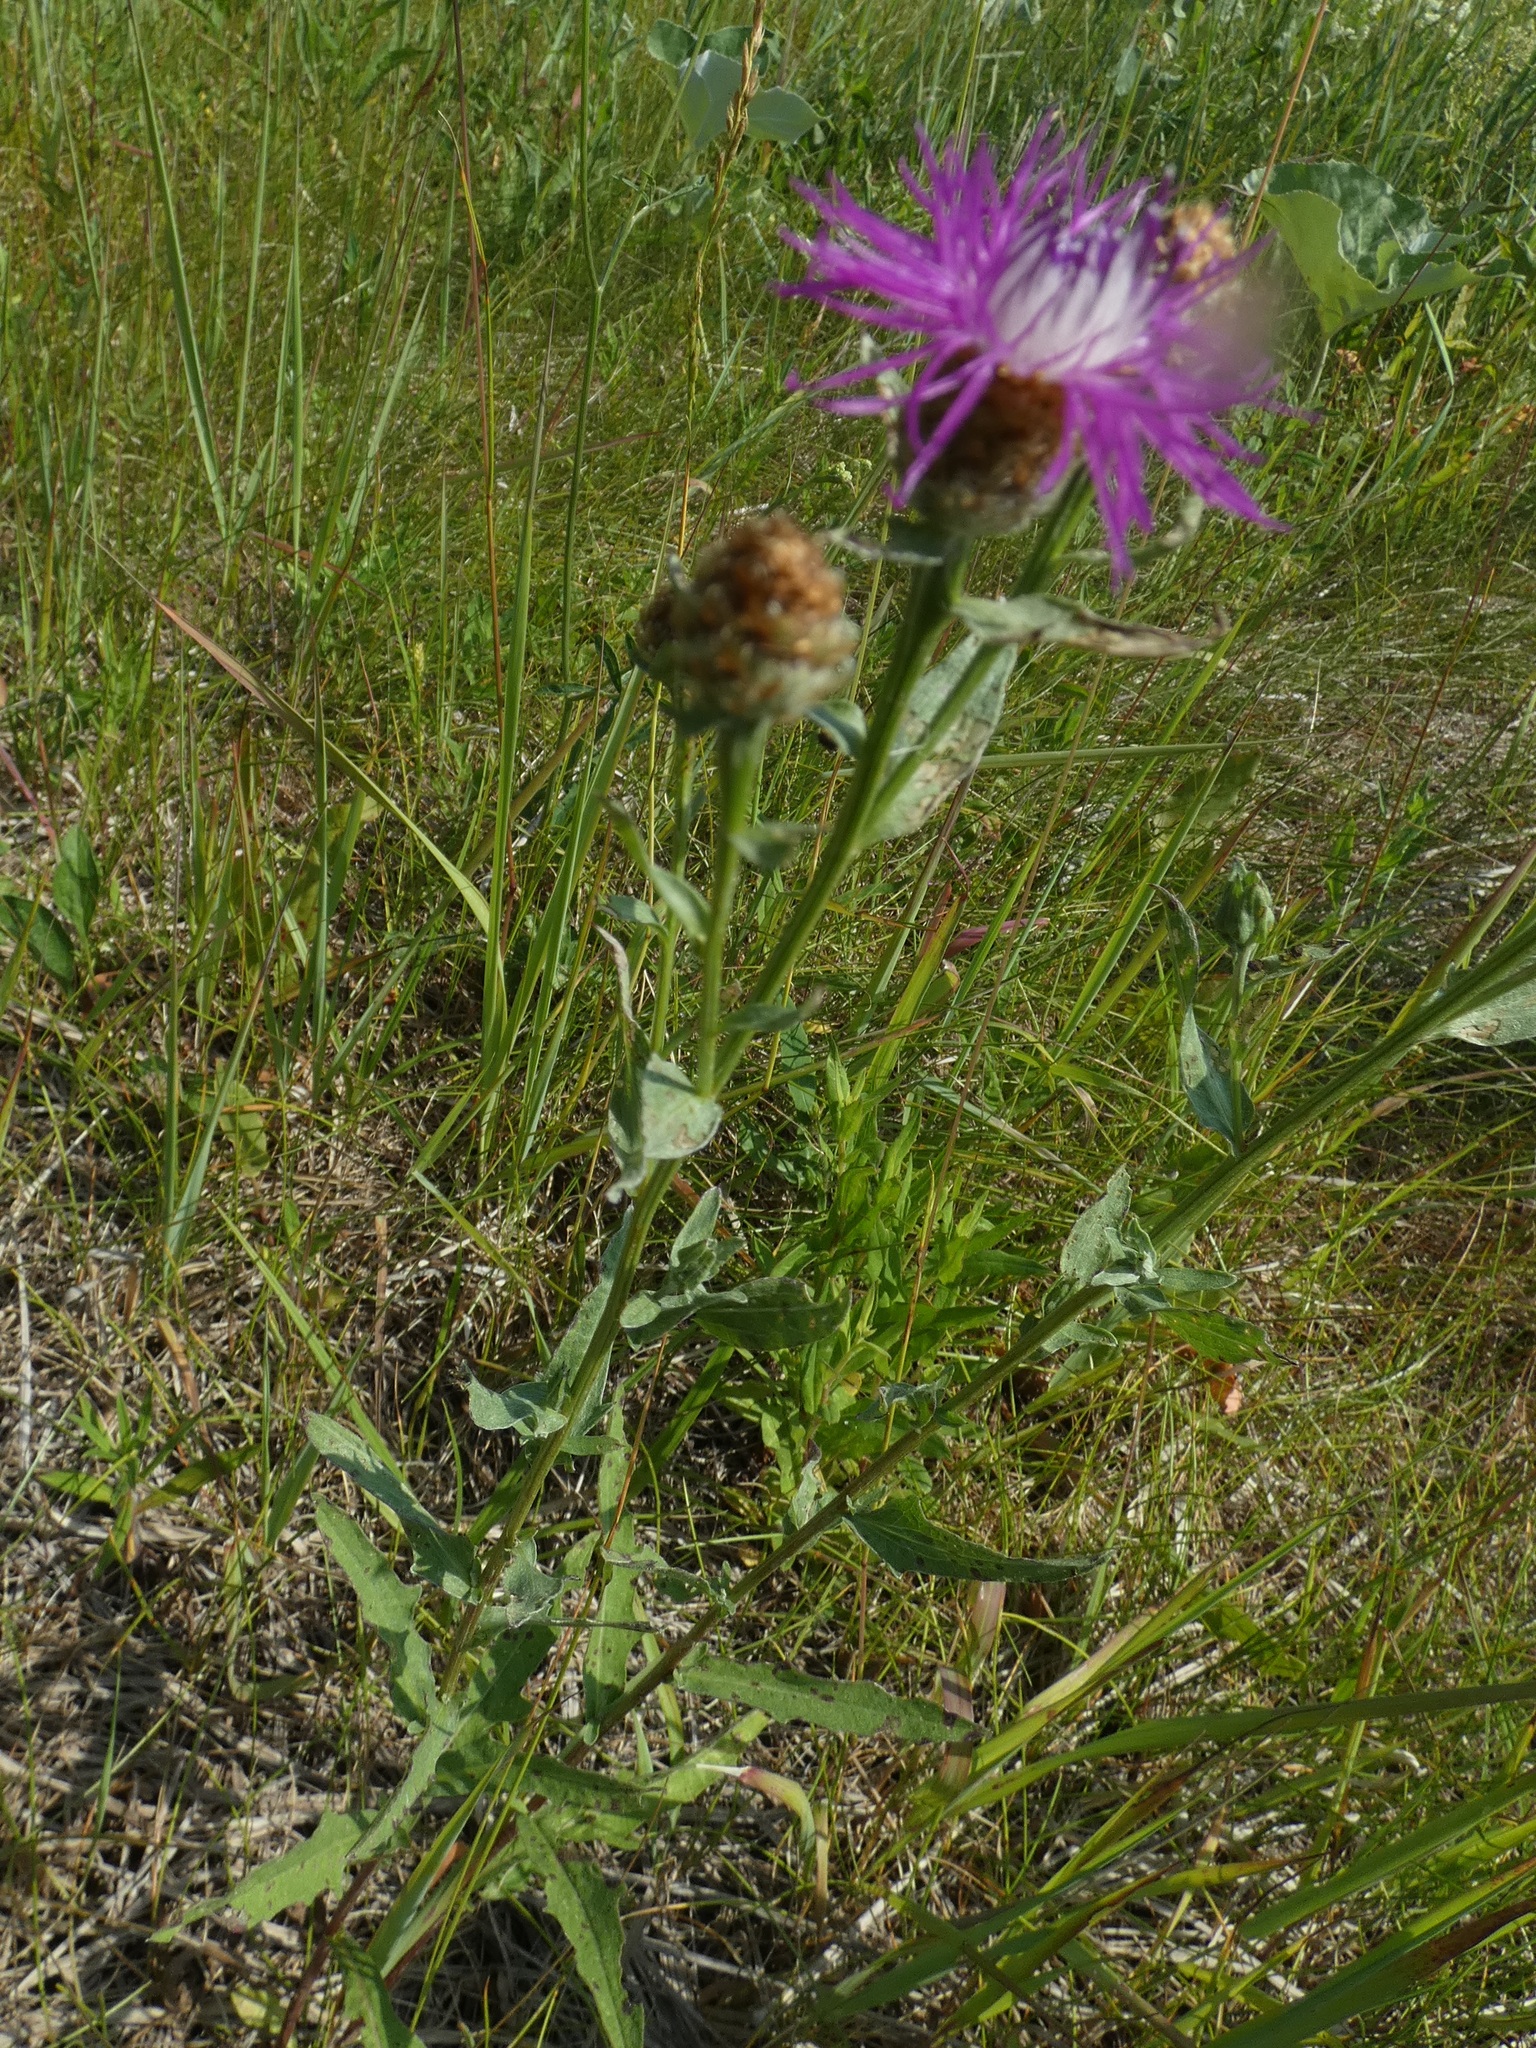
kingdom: Plantae
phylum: Tracheophyta
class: Magnoliopsida
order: Asterales
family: Asteraceae
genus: Centaurea
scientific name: Centaurea jacea
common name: Brown knapweed
